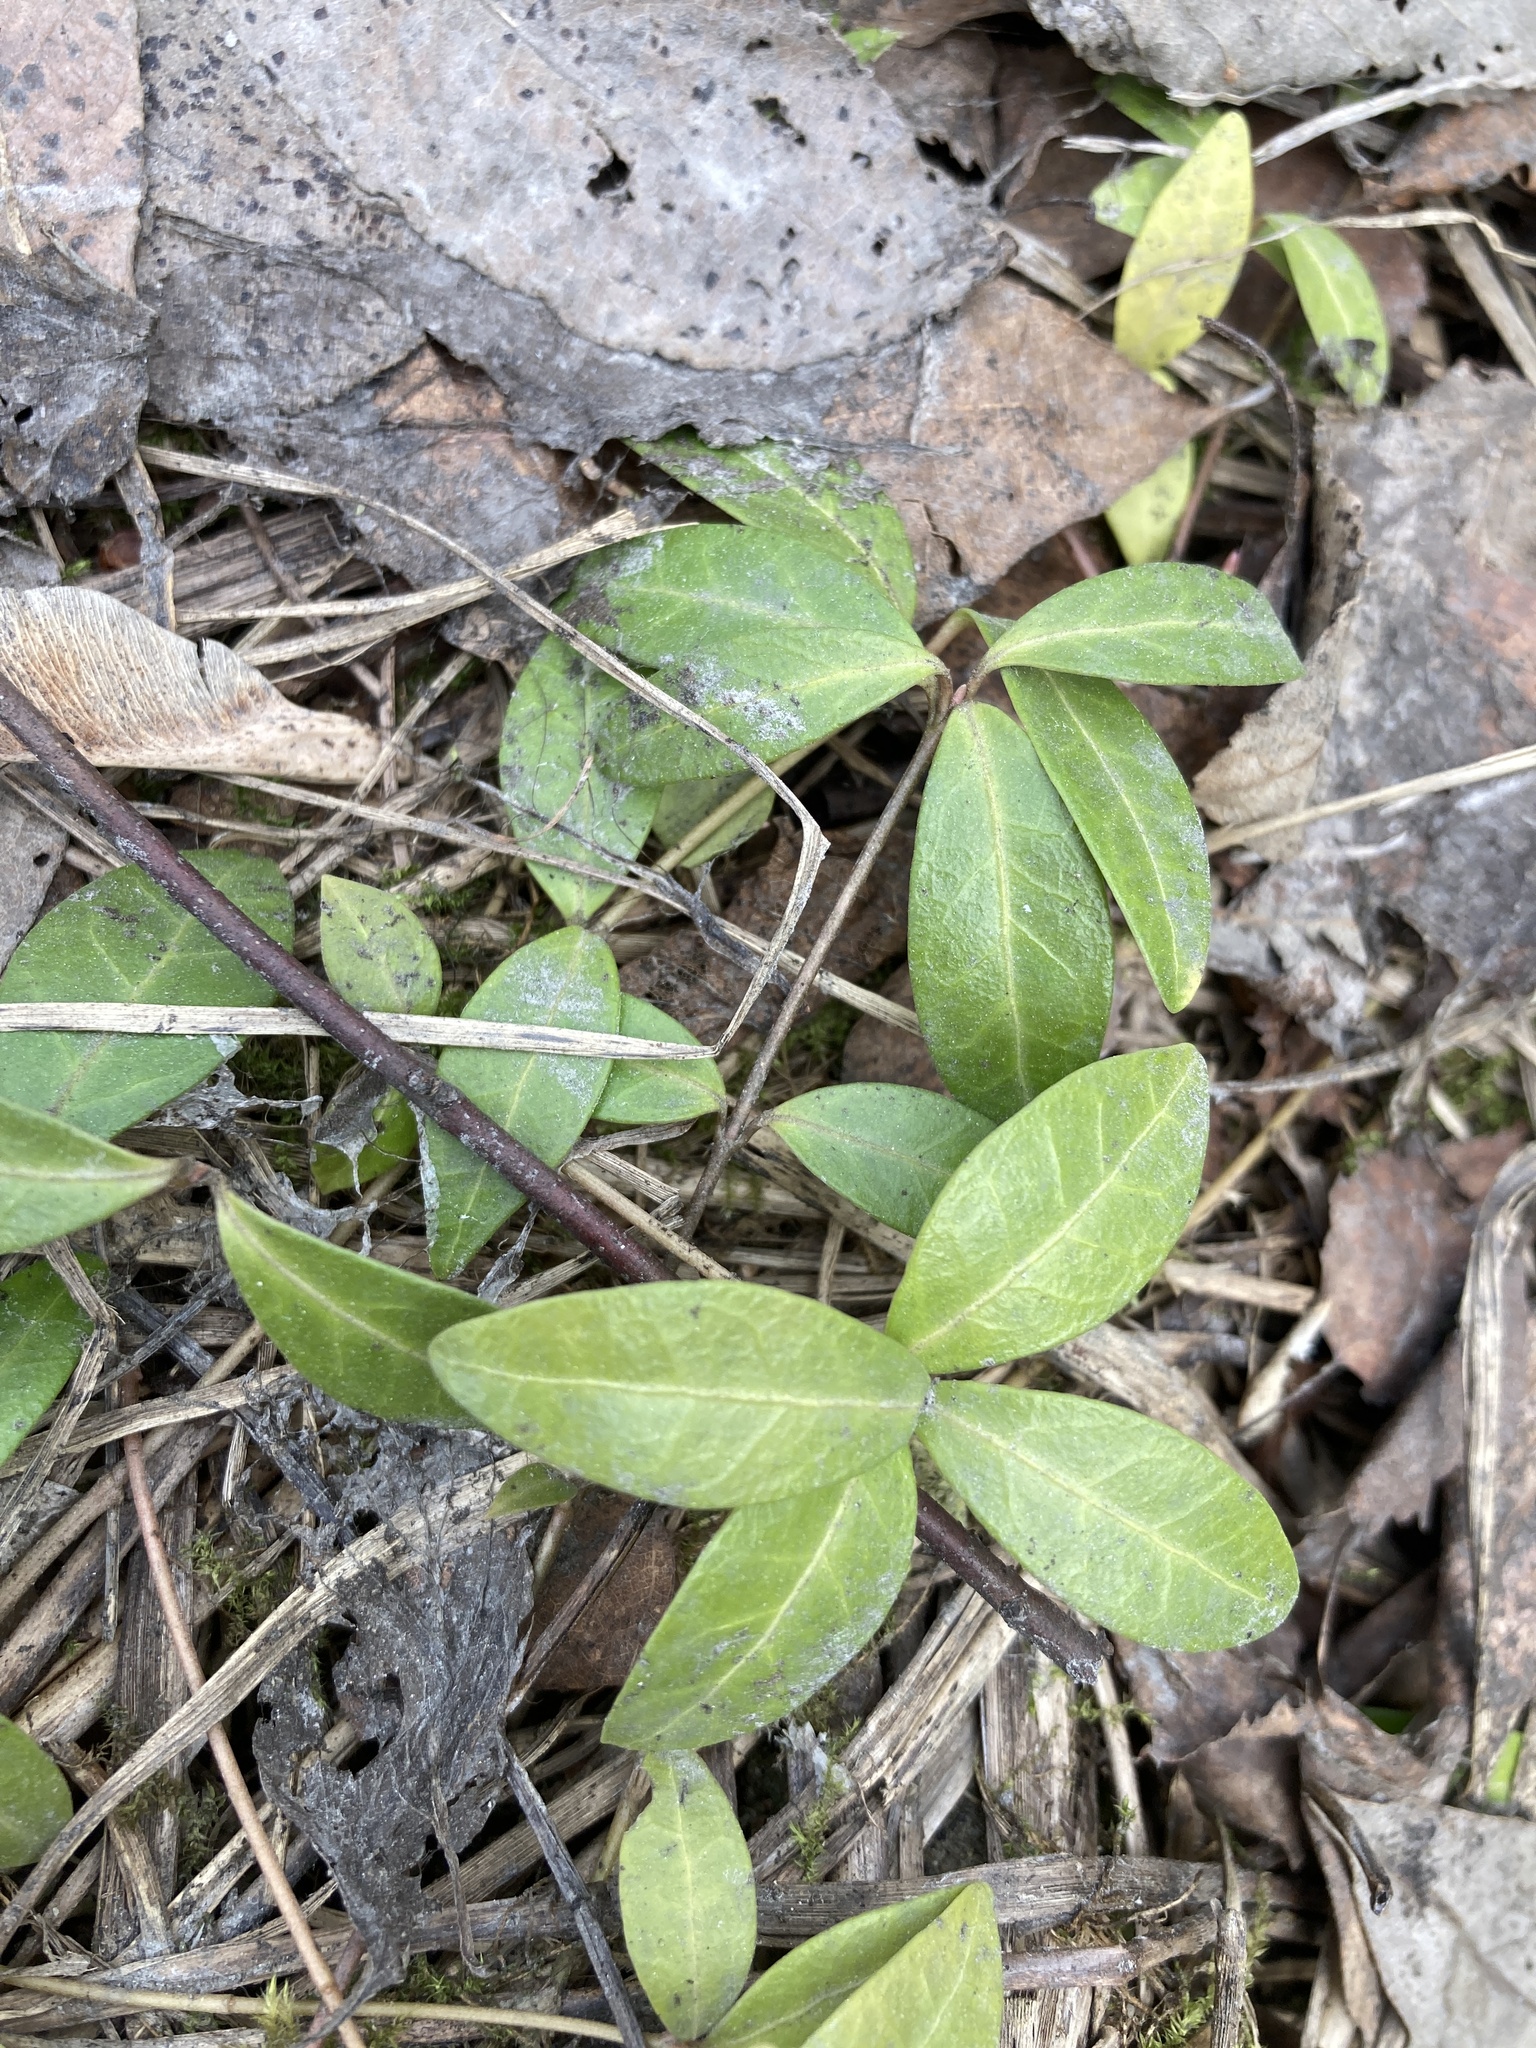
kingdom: Plantae
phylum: Tracheophyta
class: Magnoliopsida
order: Gentianales
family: Apocynaceae
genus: Vinca
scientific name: Vinca minor
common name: Lesser periwinkle
